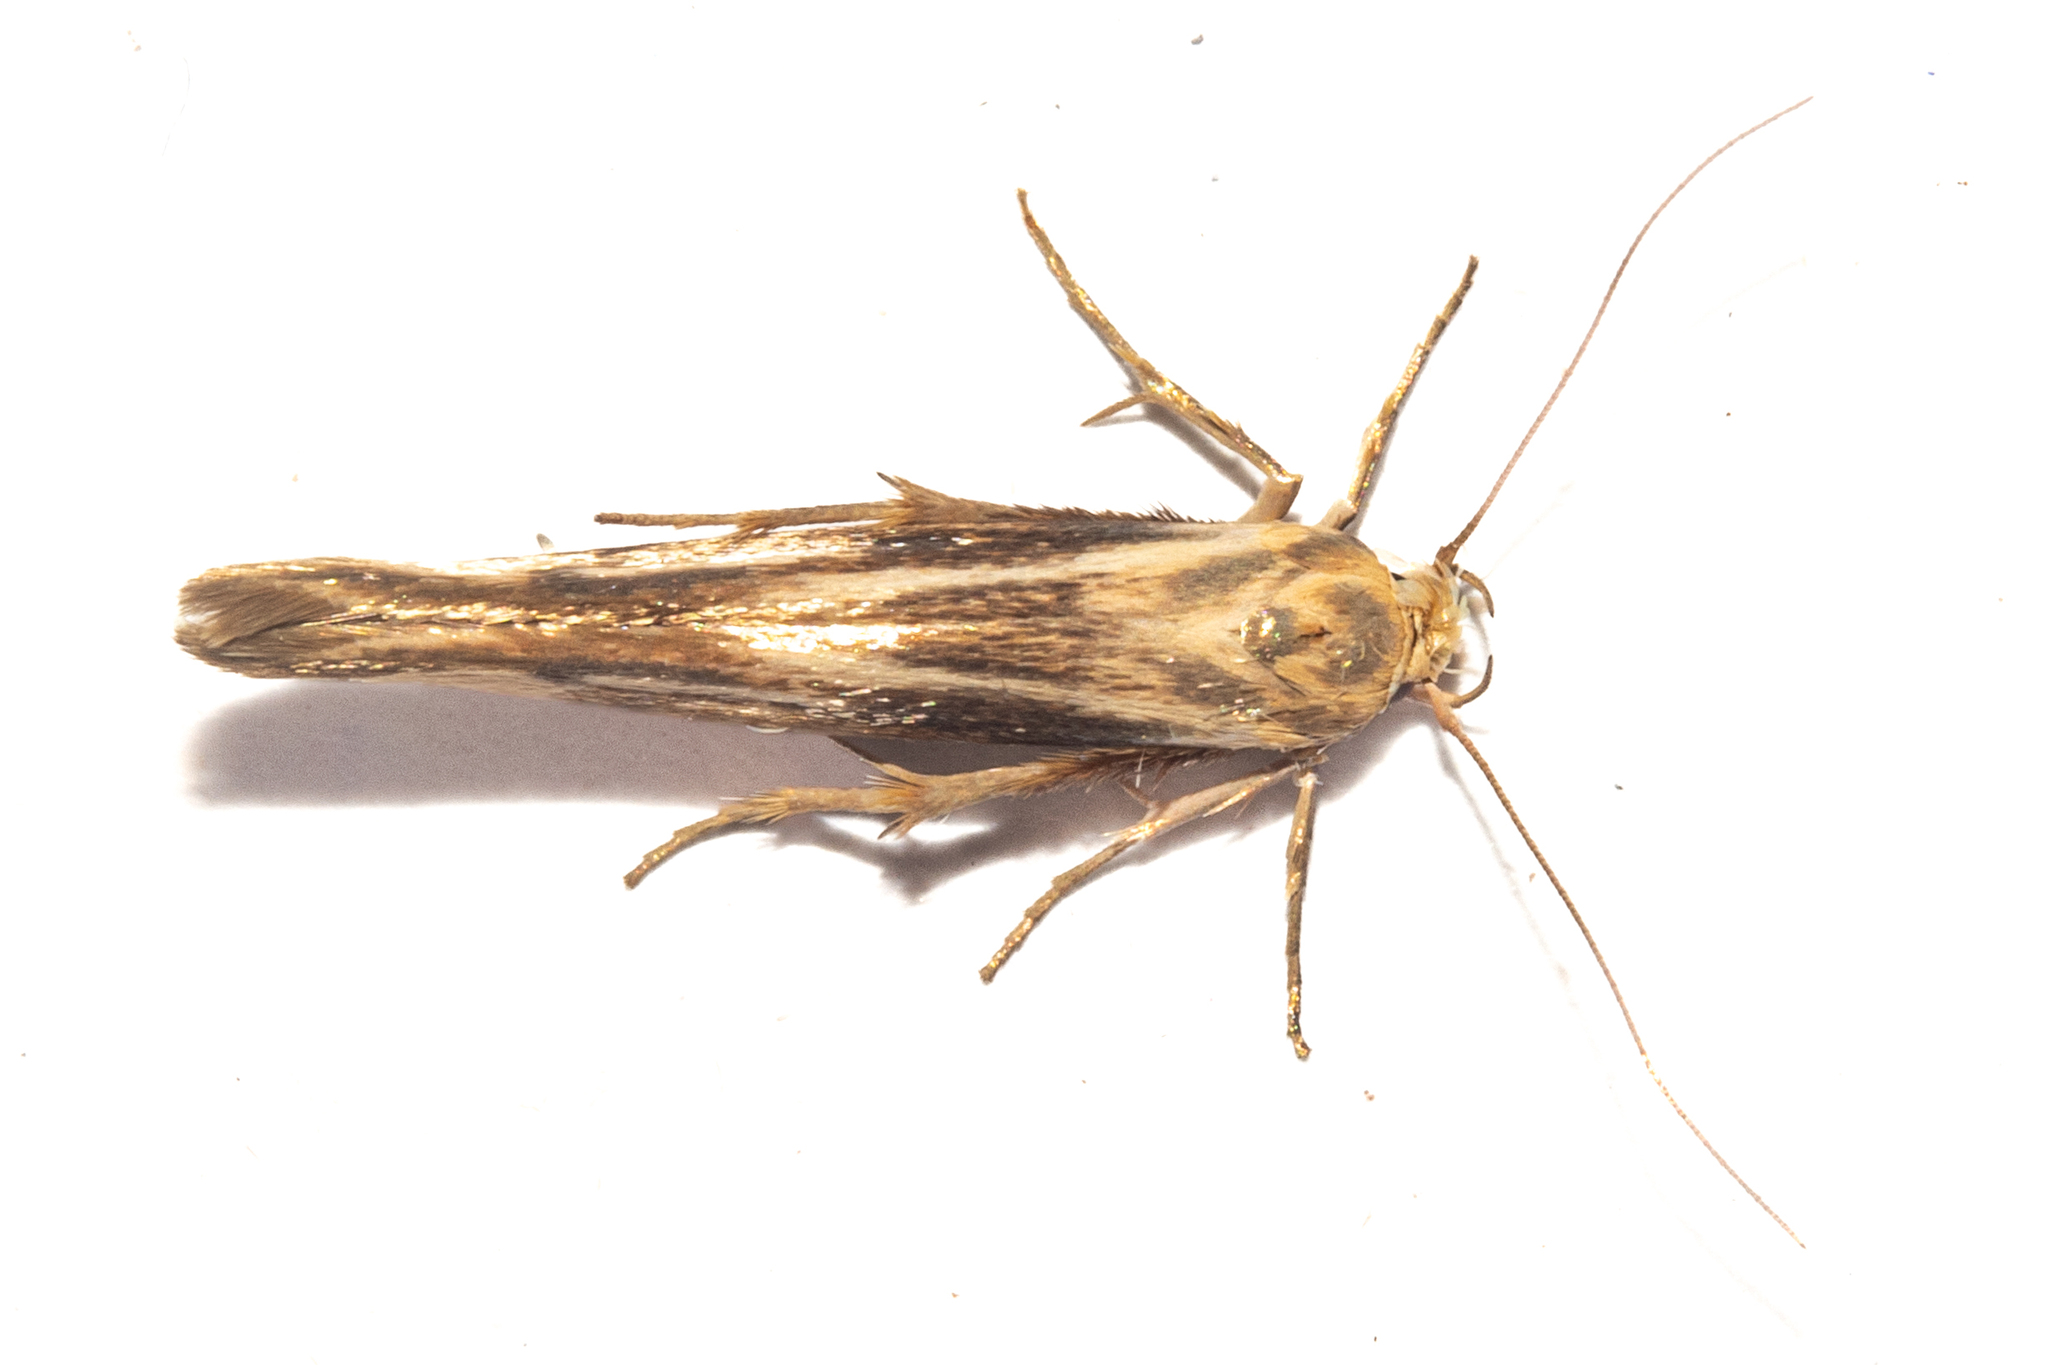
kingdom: Animalia
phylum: Arthropoda
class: Insecta
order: Lepidoptera
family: Stathmopodidae
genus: Stathmopoda
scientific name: Stathmopoda aposema
